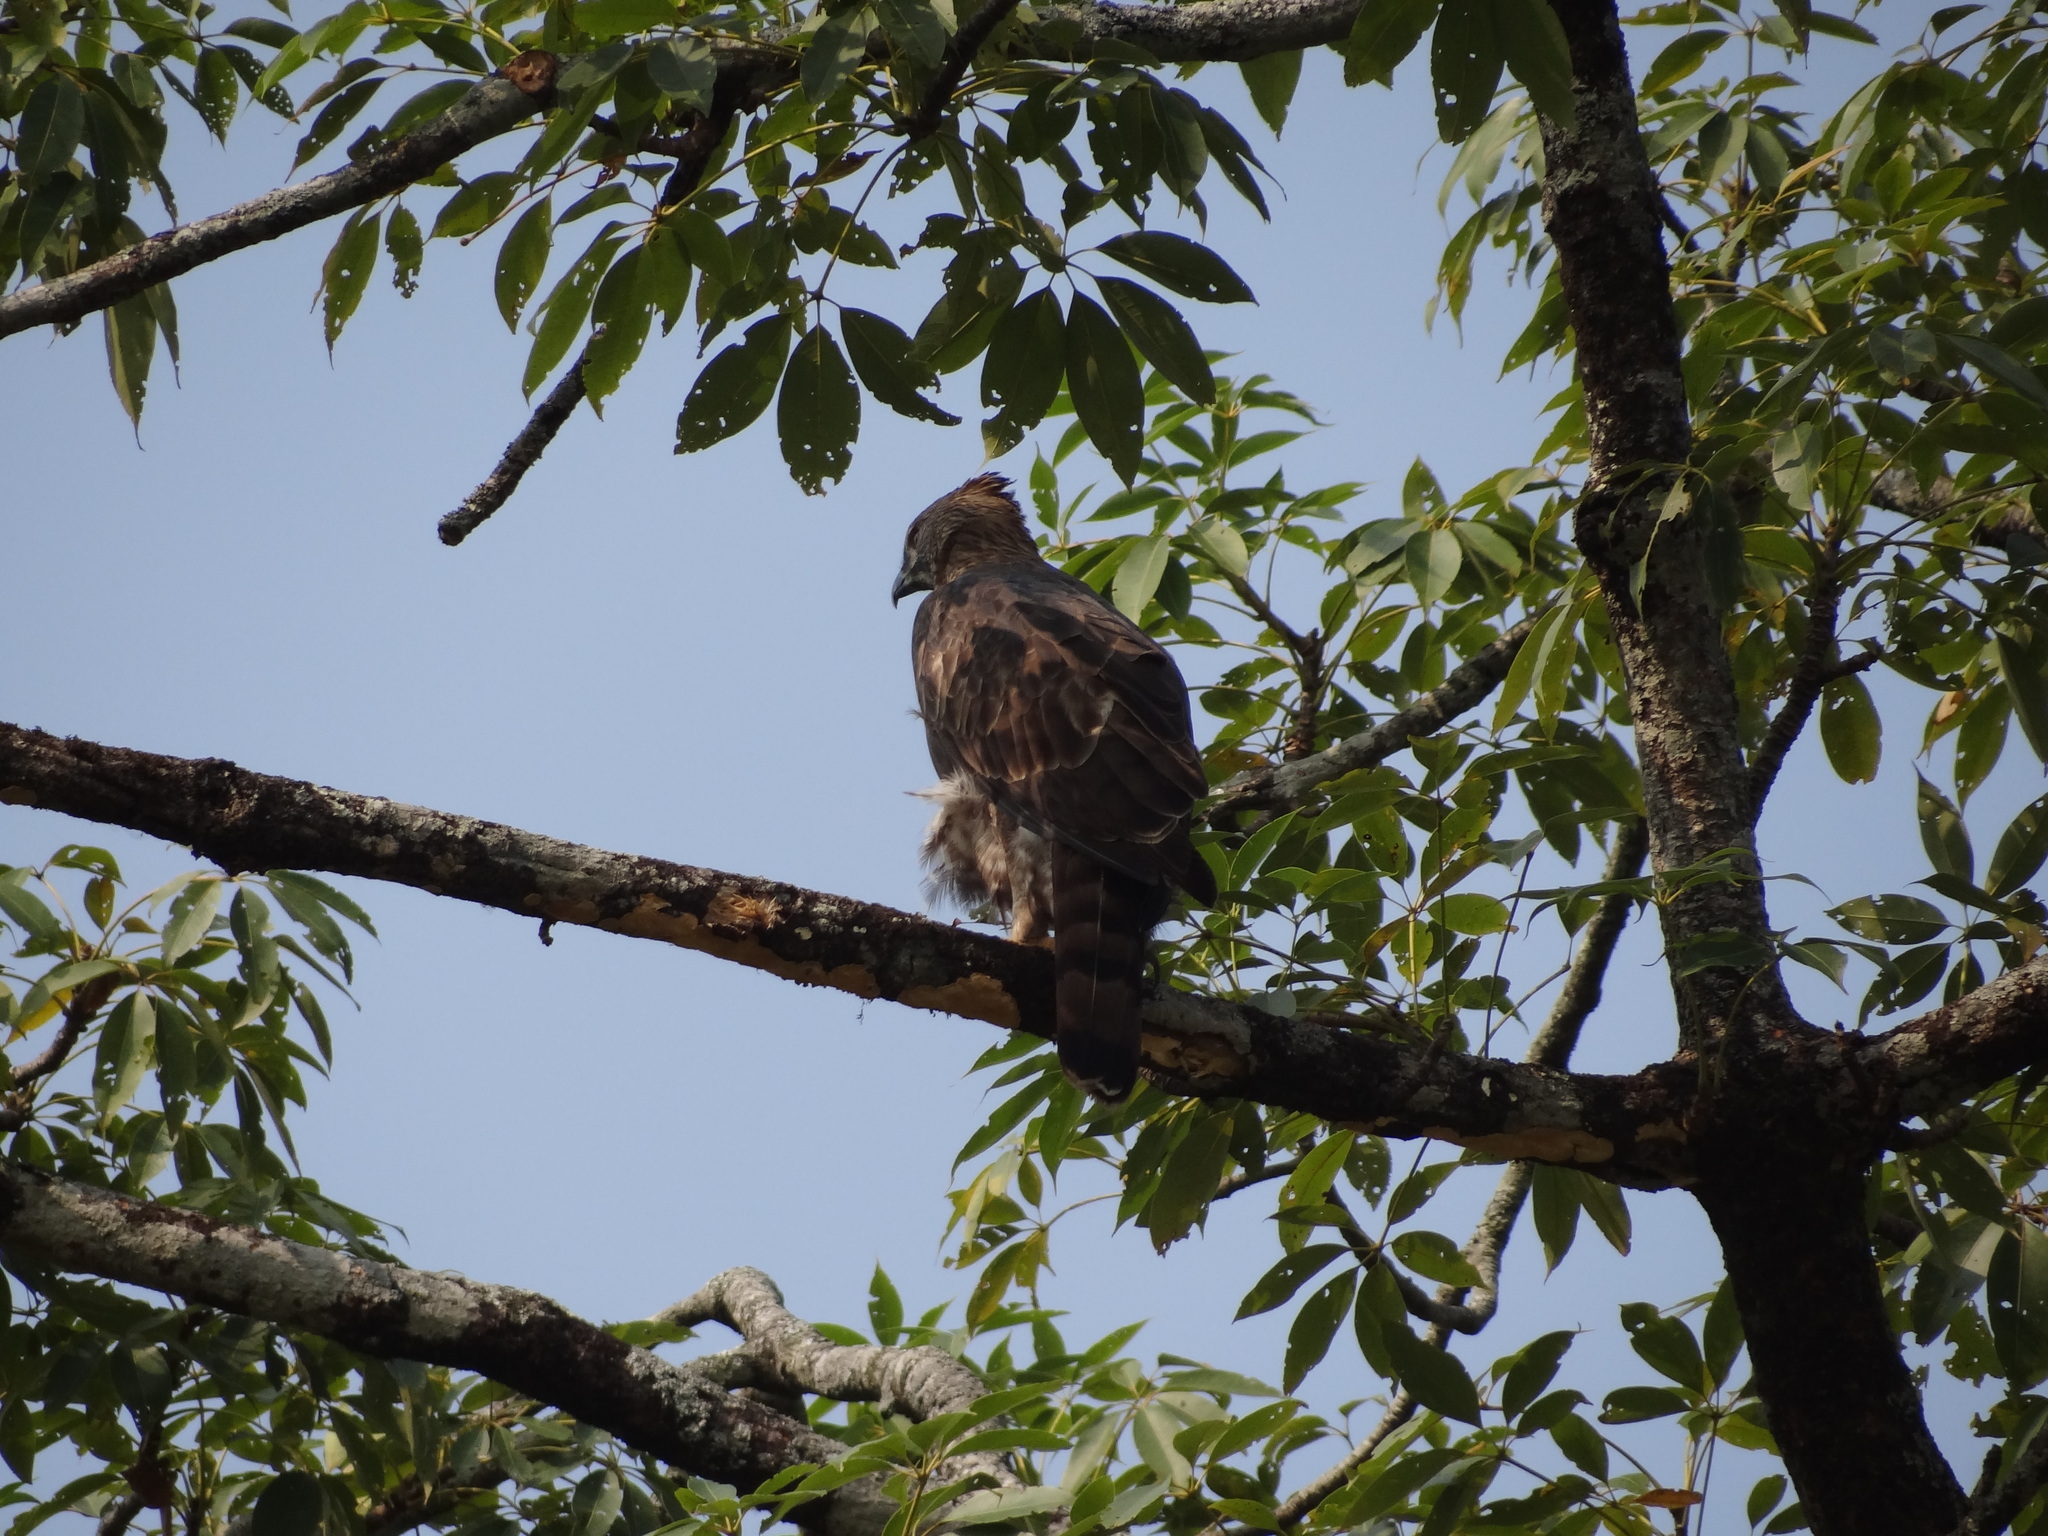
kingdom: Animalia
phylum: Chordata
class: Aves
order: Accipitriformes
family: Accipitridae
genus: Nisaetus
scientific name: Nisaetus cirrhatus
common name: Changeable hawk-eagle
